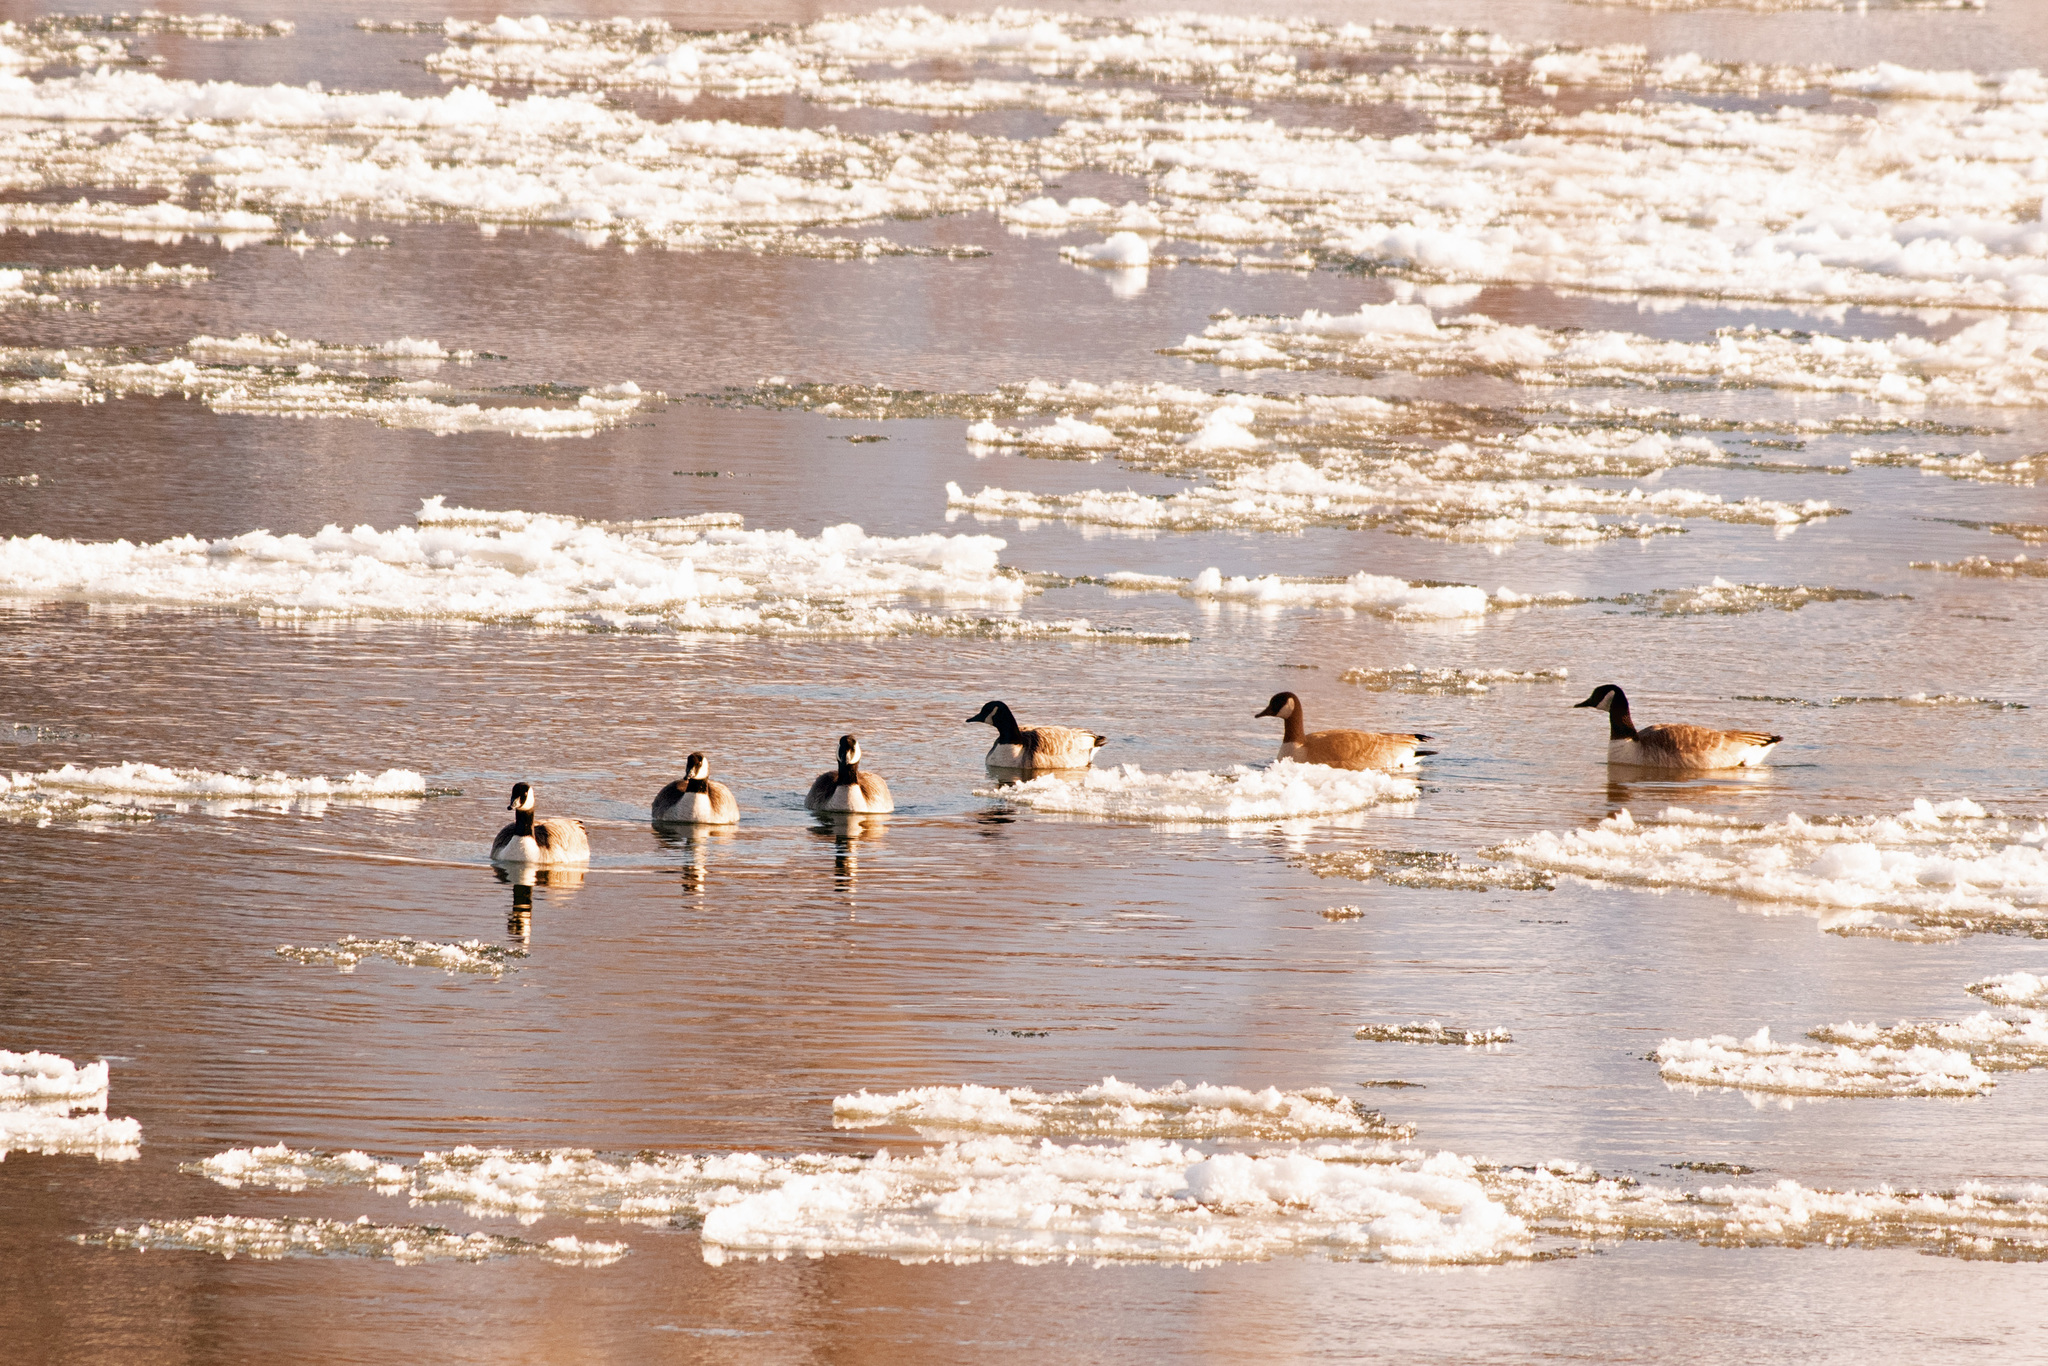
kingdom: Animalia
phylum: Chordata
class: Aves
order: Anseriformes
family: Anatidae
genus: Branta
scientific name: Branta canadensis
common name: Canada goose
